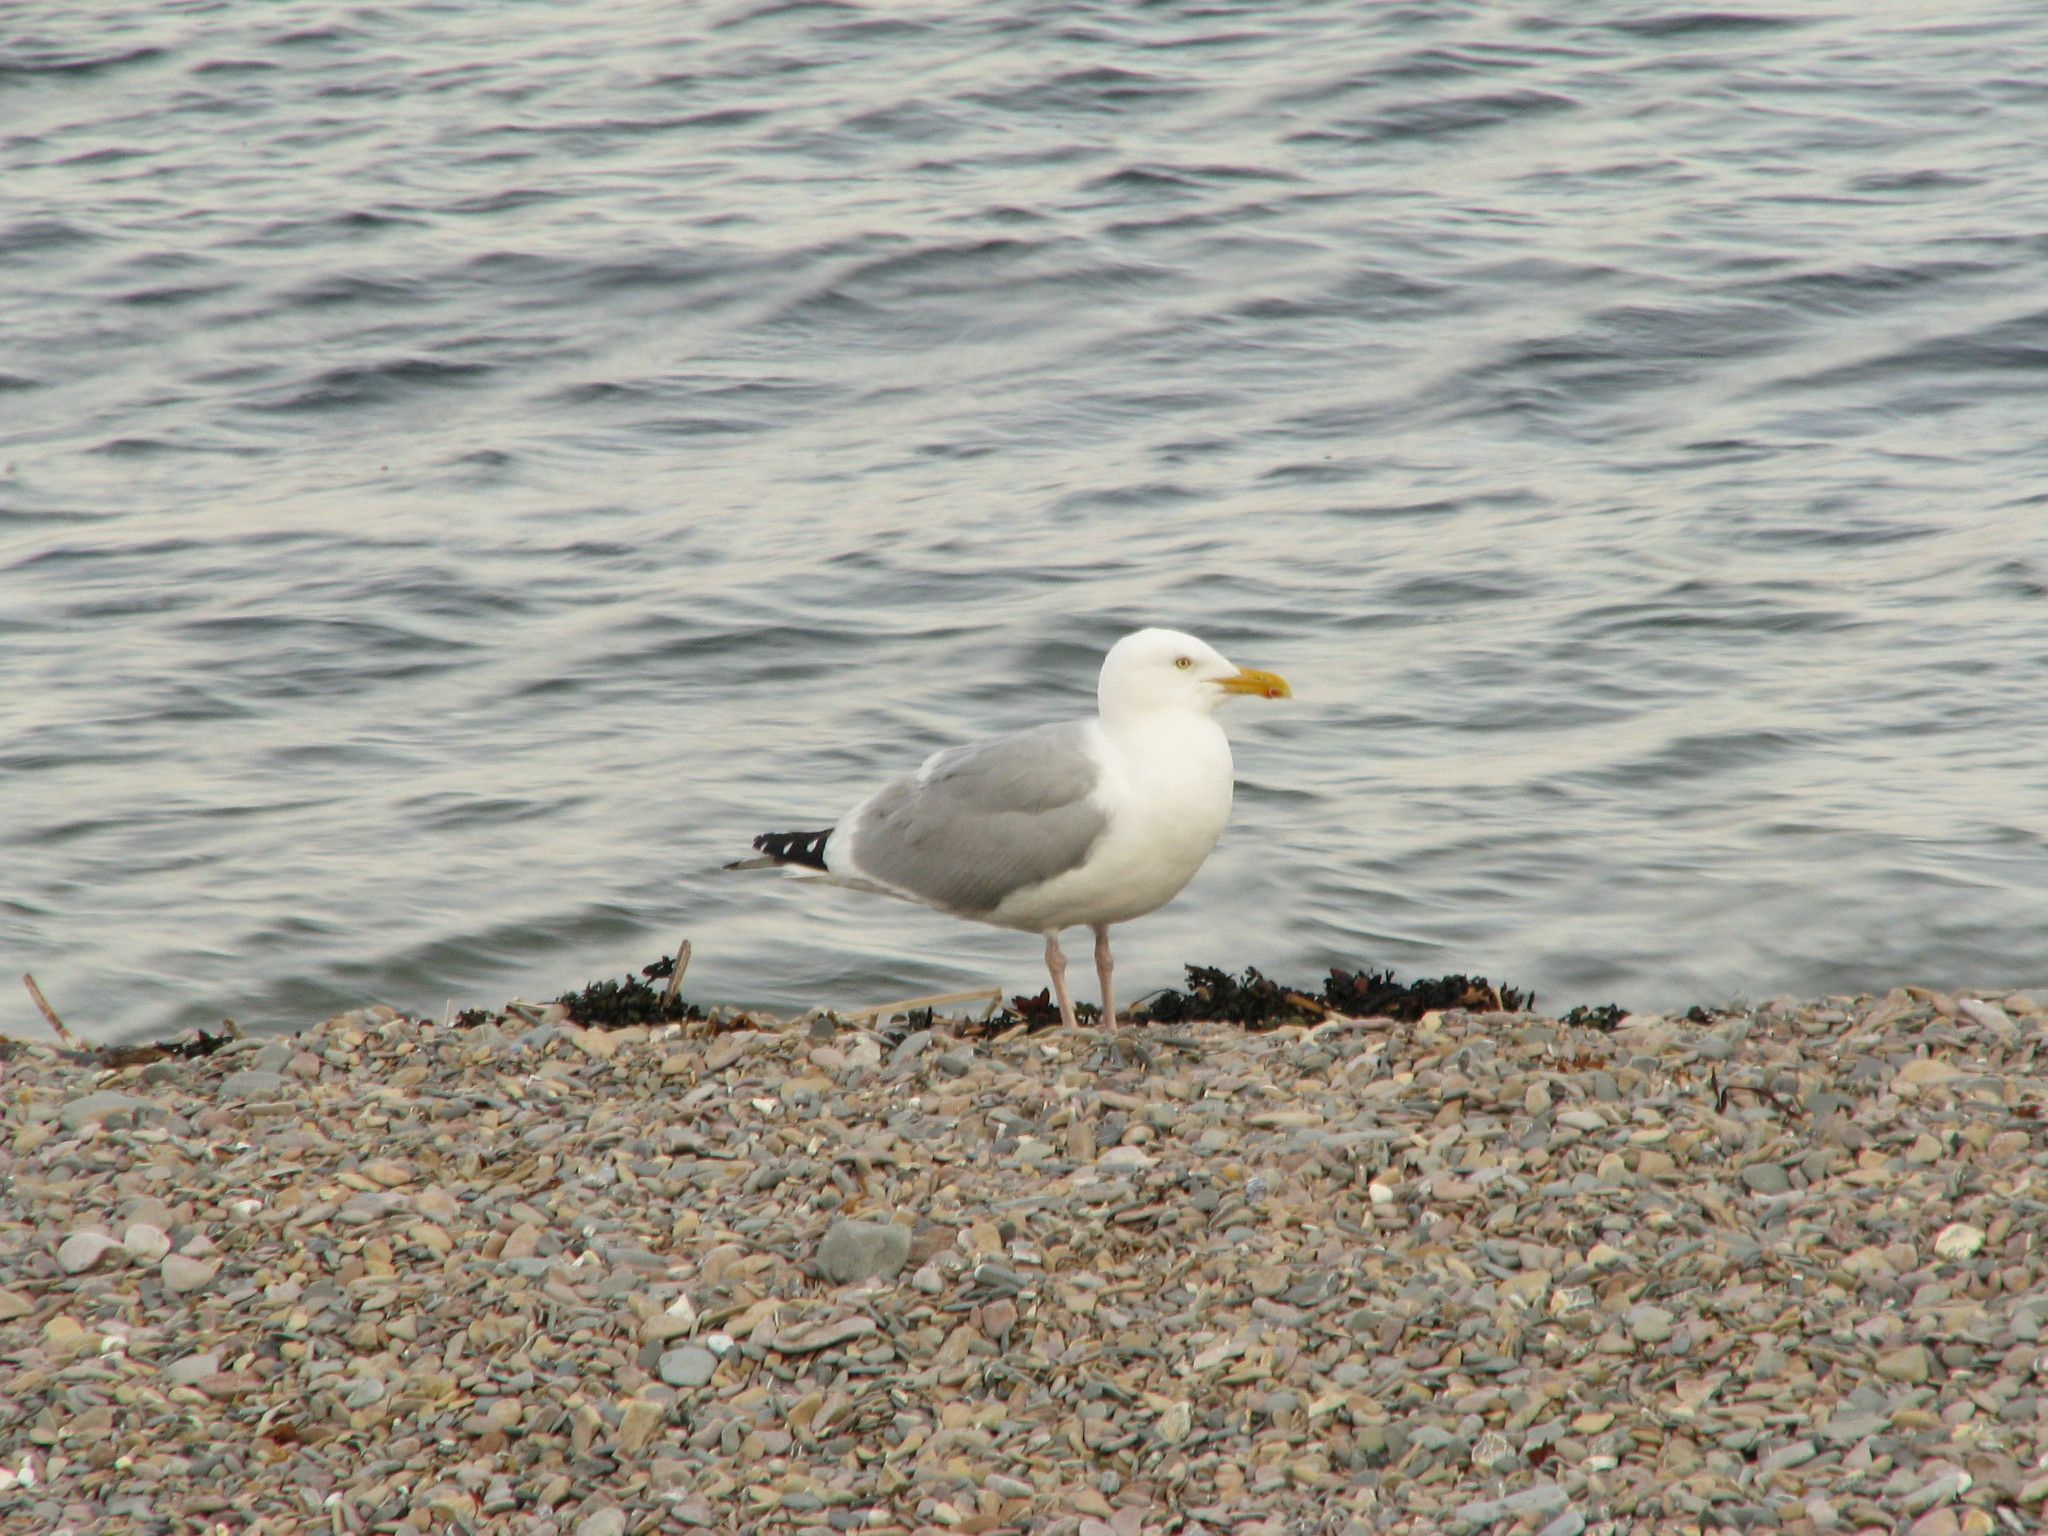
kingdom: Animalia
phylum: Chordata
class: Aves
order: Charadriiformes
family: Laridae
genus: Larus
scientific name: Larus argentatus
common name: Herring gull
